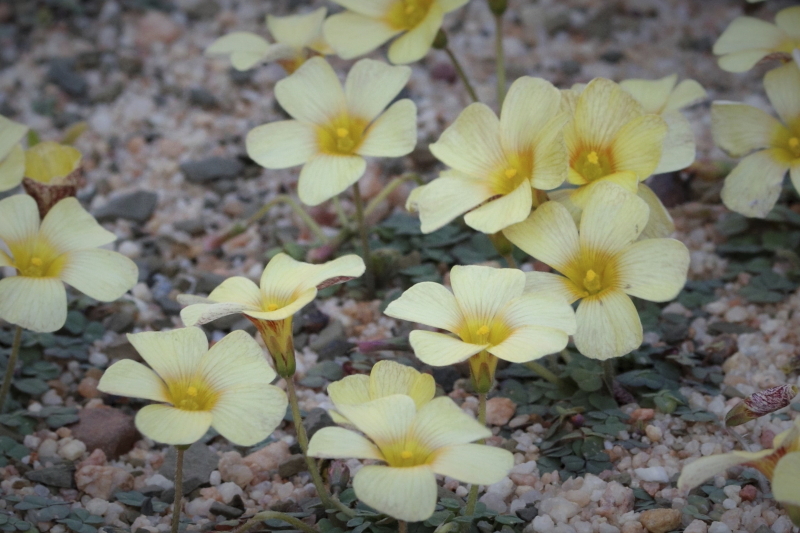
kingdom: Plantae
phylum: Tracheophyta
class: Magnoliopsida
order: Oxalidales
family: Oxalidaceae
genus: Oxalis
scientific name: Oxalis obtusa
